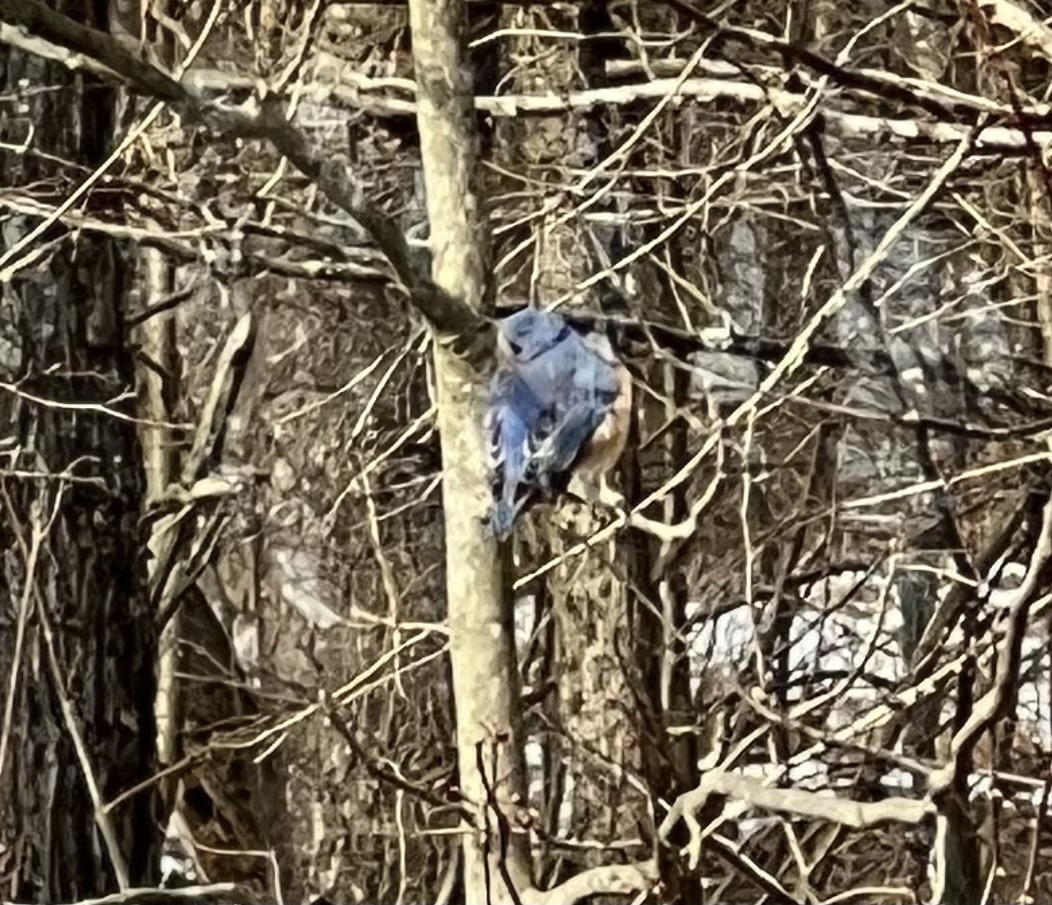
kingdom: Animalia
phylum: Chordata
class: Aves
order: Passeriformes
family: Turdidae
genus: Sialia
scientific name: Sialia sialis
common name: Eastern bluebird
